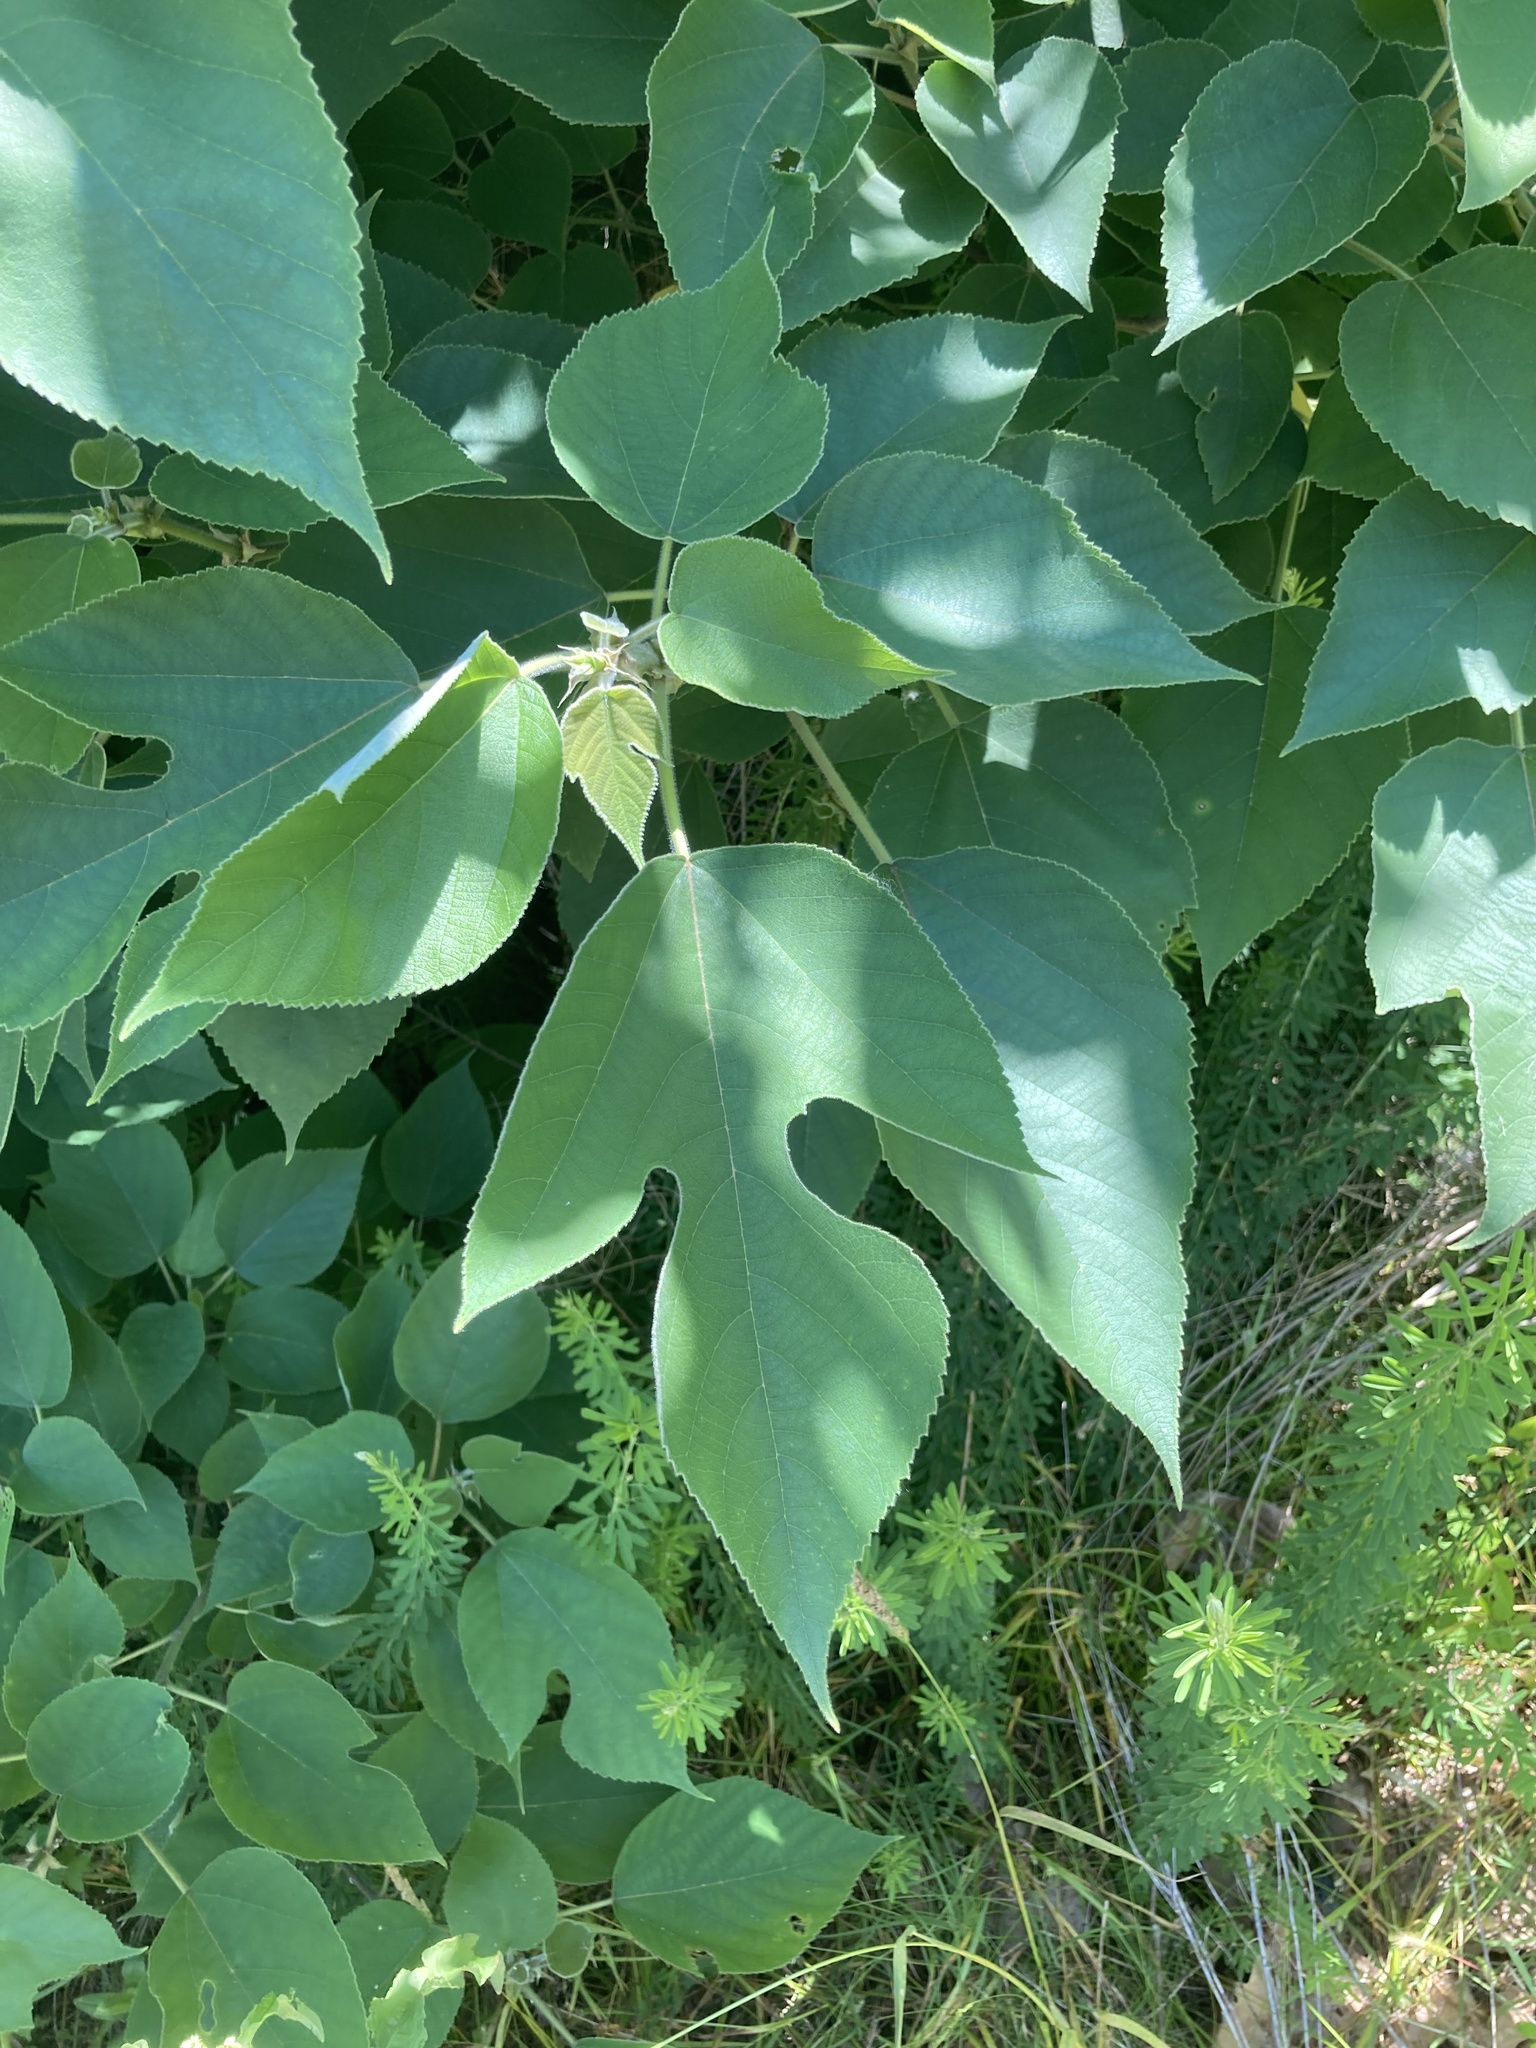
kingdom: Plantae
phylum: Tracheophyta
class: Magnoliopsida
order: Rosales
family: Moraceae
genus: Broussonetia
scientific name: Broussonetia papyrifera
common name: Paper mulberry
